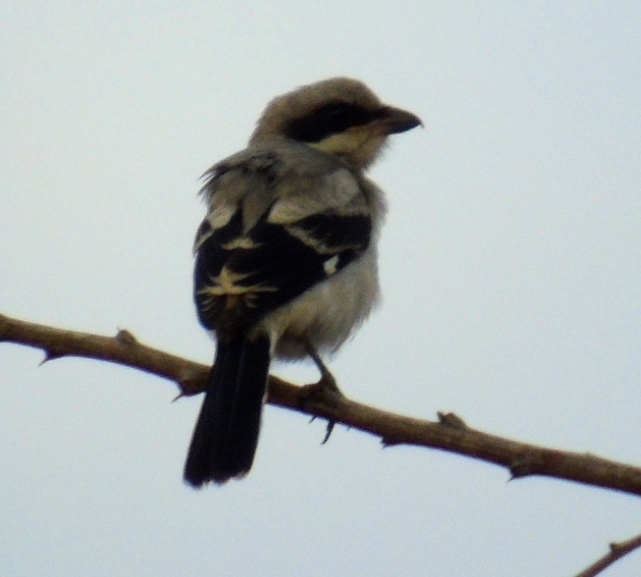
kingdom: Animalia
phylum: Chordata
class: Aves
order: Passeriformes
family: Laniidae
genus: Lanius
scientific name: Lanius ludovicianus
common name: Loggerhead shrike
